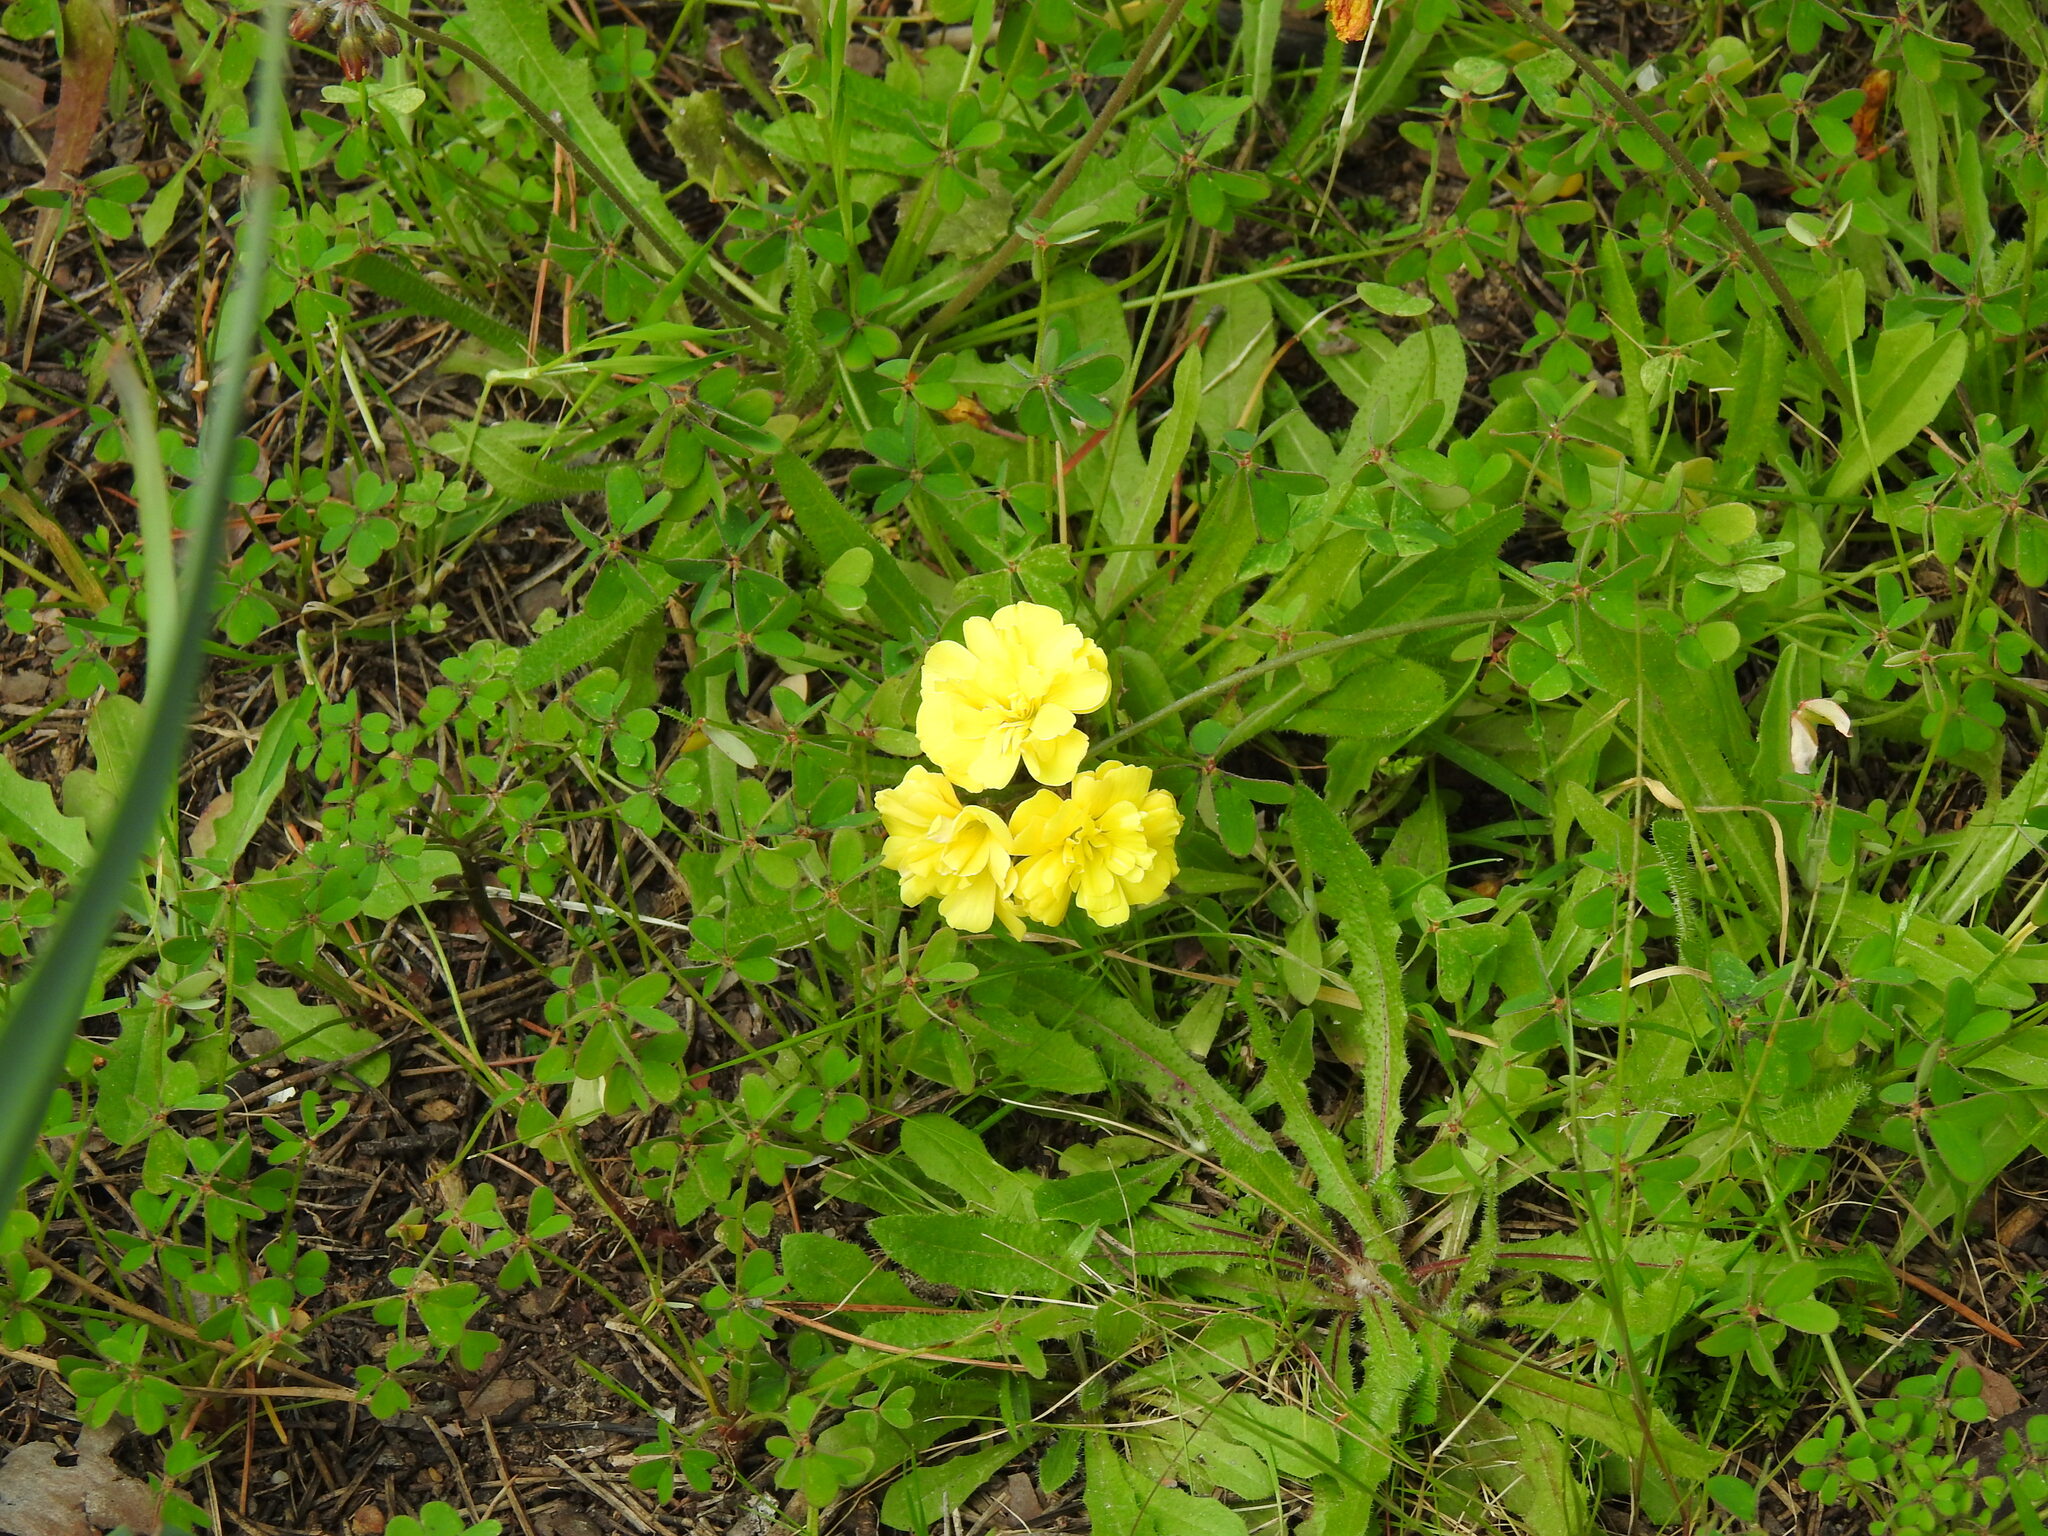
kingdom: Plantae
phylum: Tracheophyta
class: Magnoliopsida
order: Oxalidales
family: Oxalidaceae
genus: Oxalis
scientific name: Oxalis pes-caprae
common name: Bermuda-buttercup
